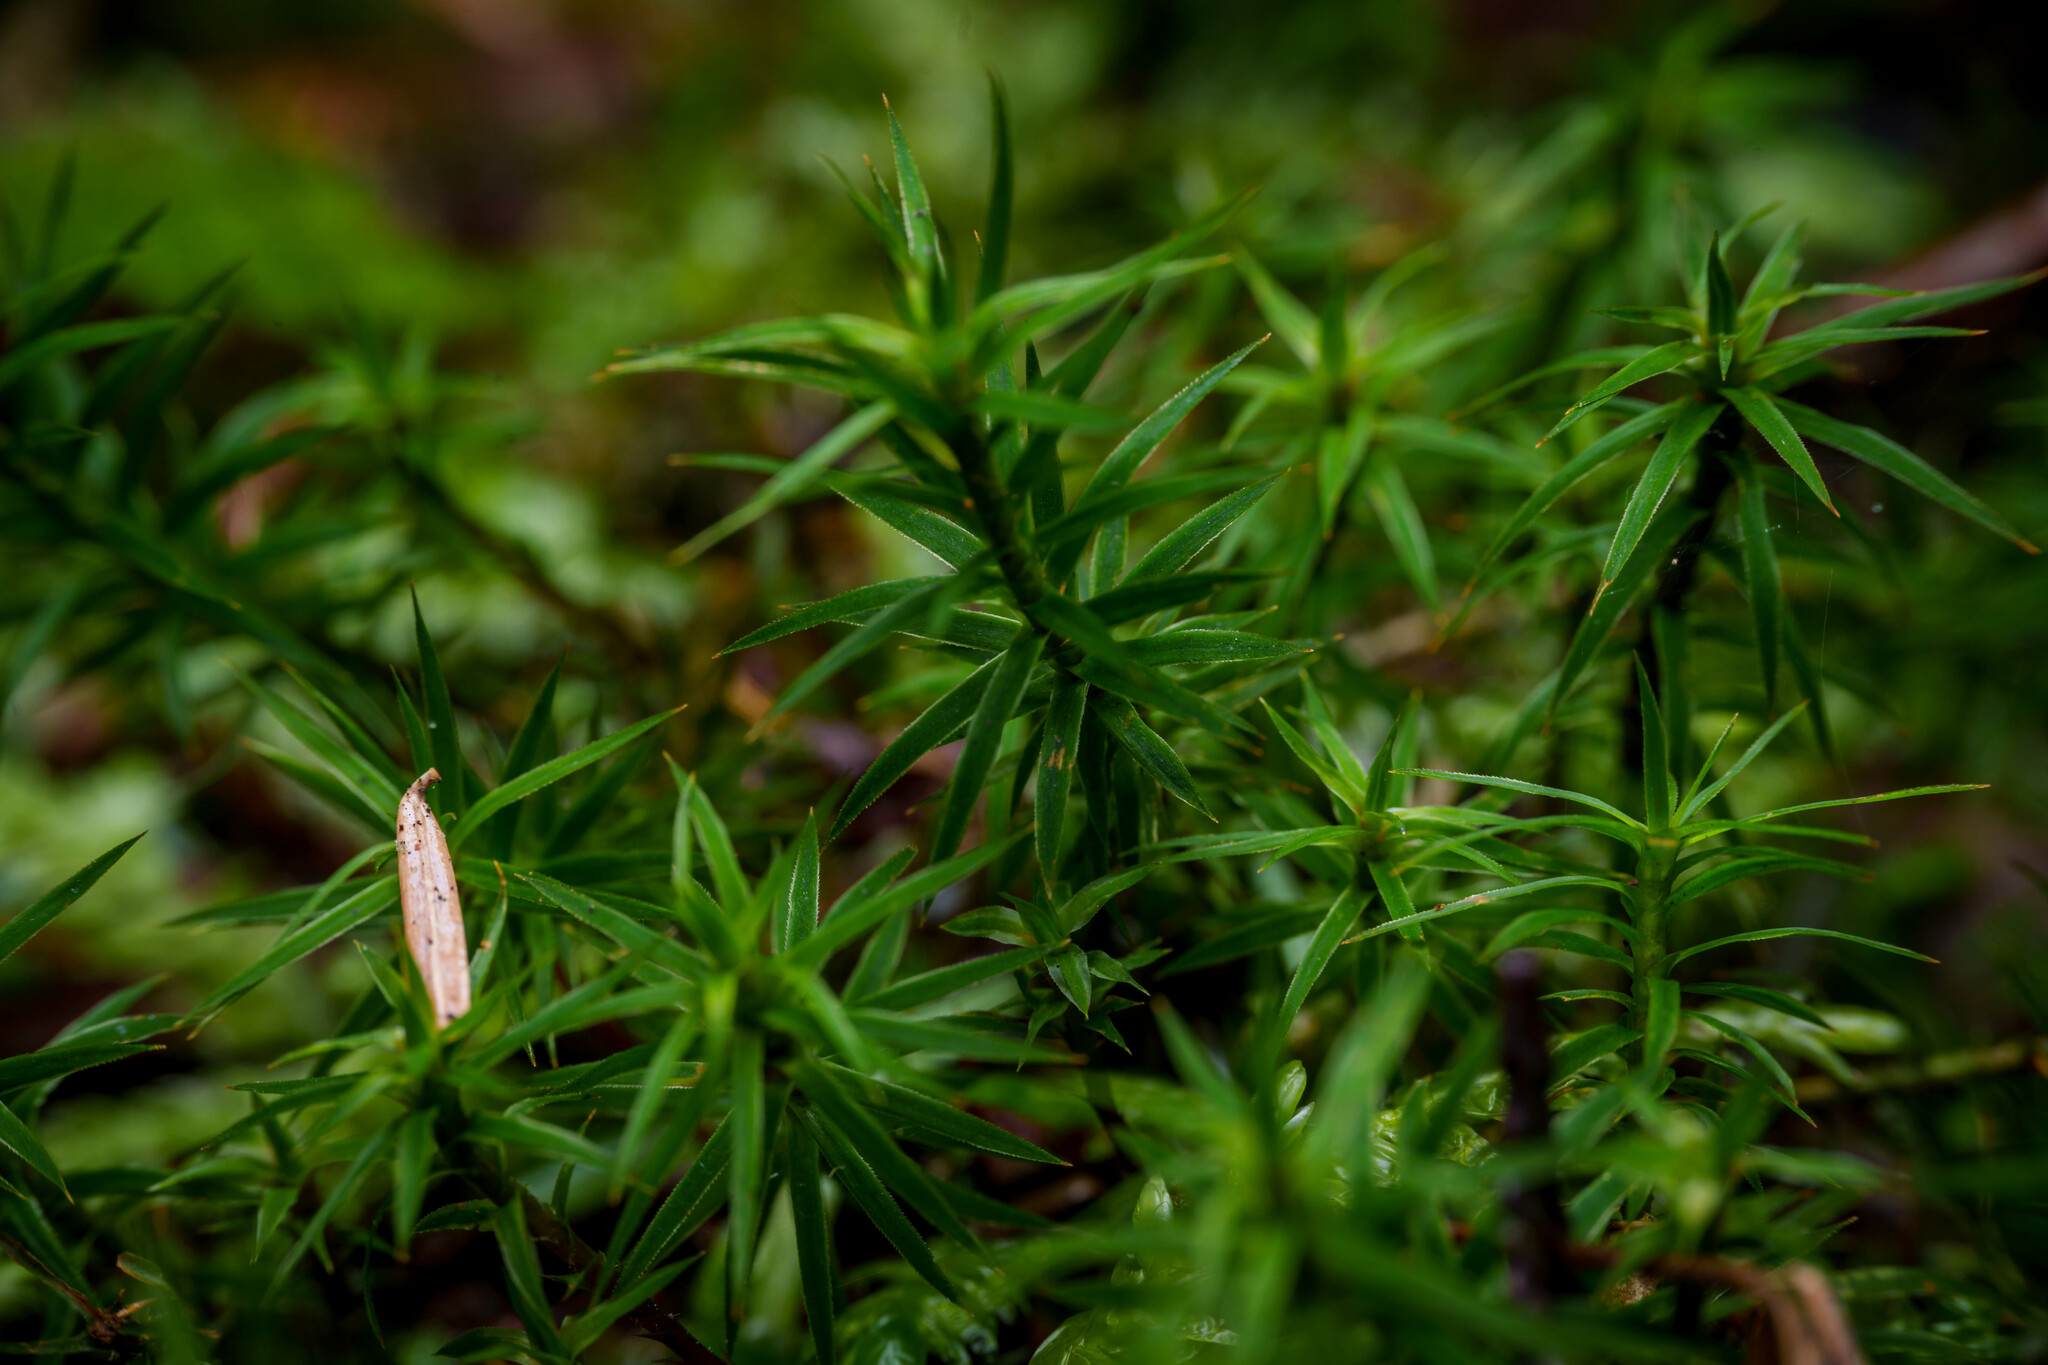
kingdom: Plantae
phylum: Bryophyta
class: Polytrichopsida
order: Polytrichales
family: Polytrichaceae
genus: Polytrichum
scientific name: Polytrichum formosum
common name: Bank haircap moss
